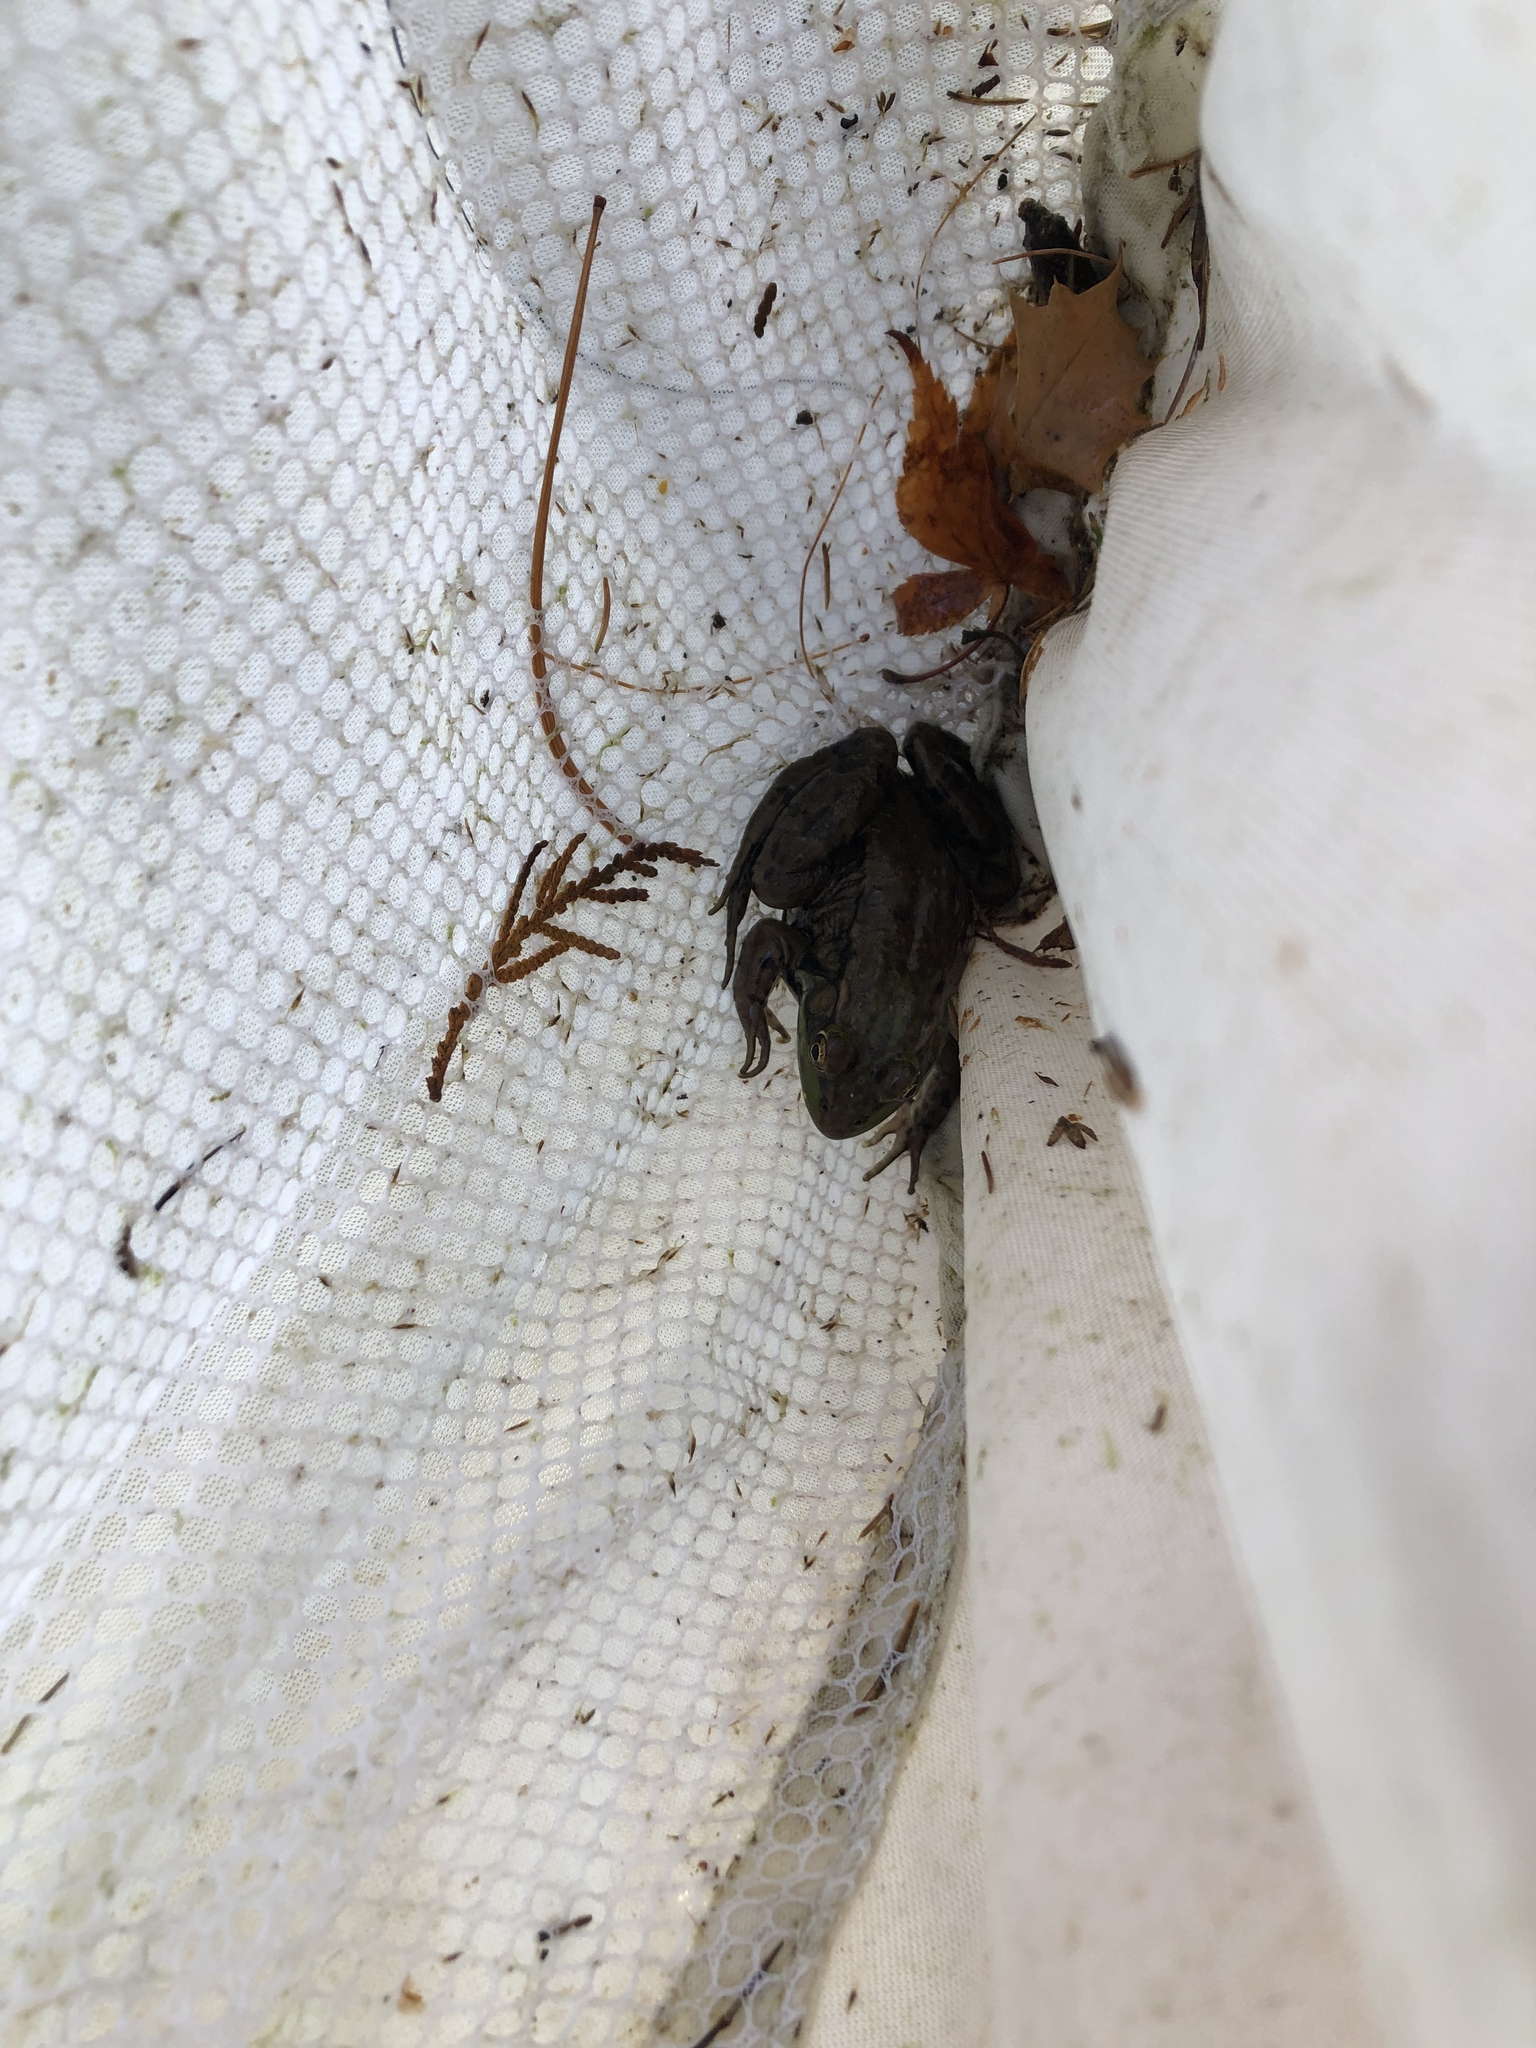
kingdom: Animalia
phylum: Chordata
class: Amphibia
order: Anura
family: Ranidae
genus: Lithobates
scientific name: Lithobates clamitans
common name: Green frog
